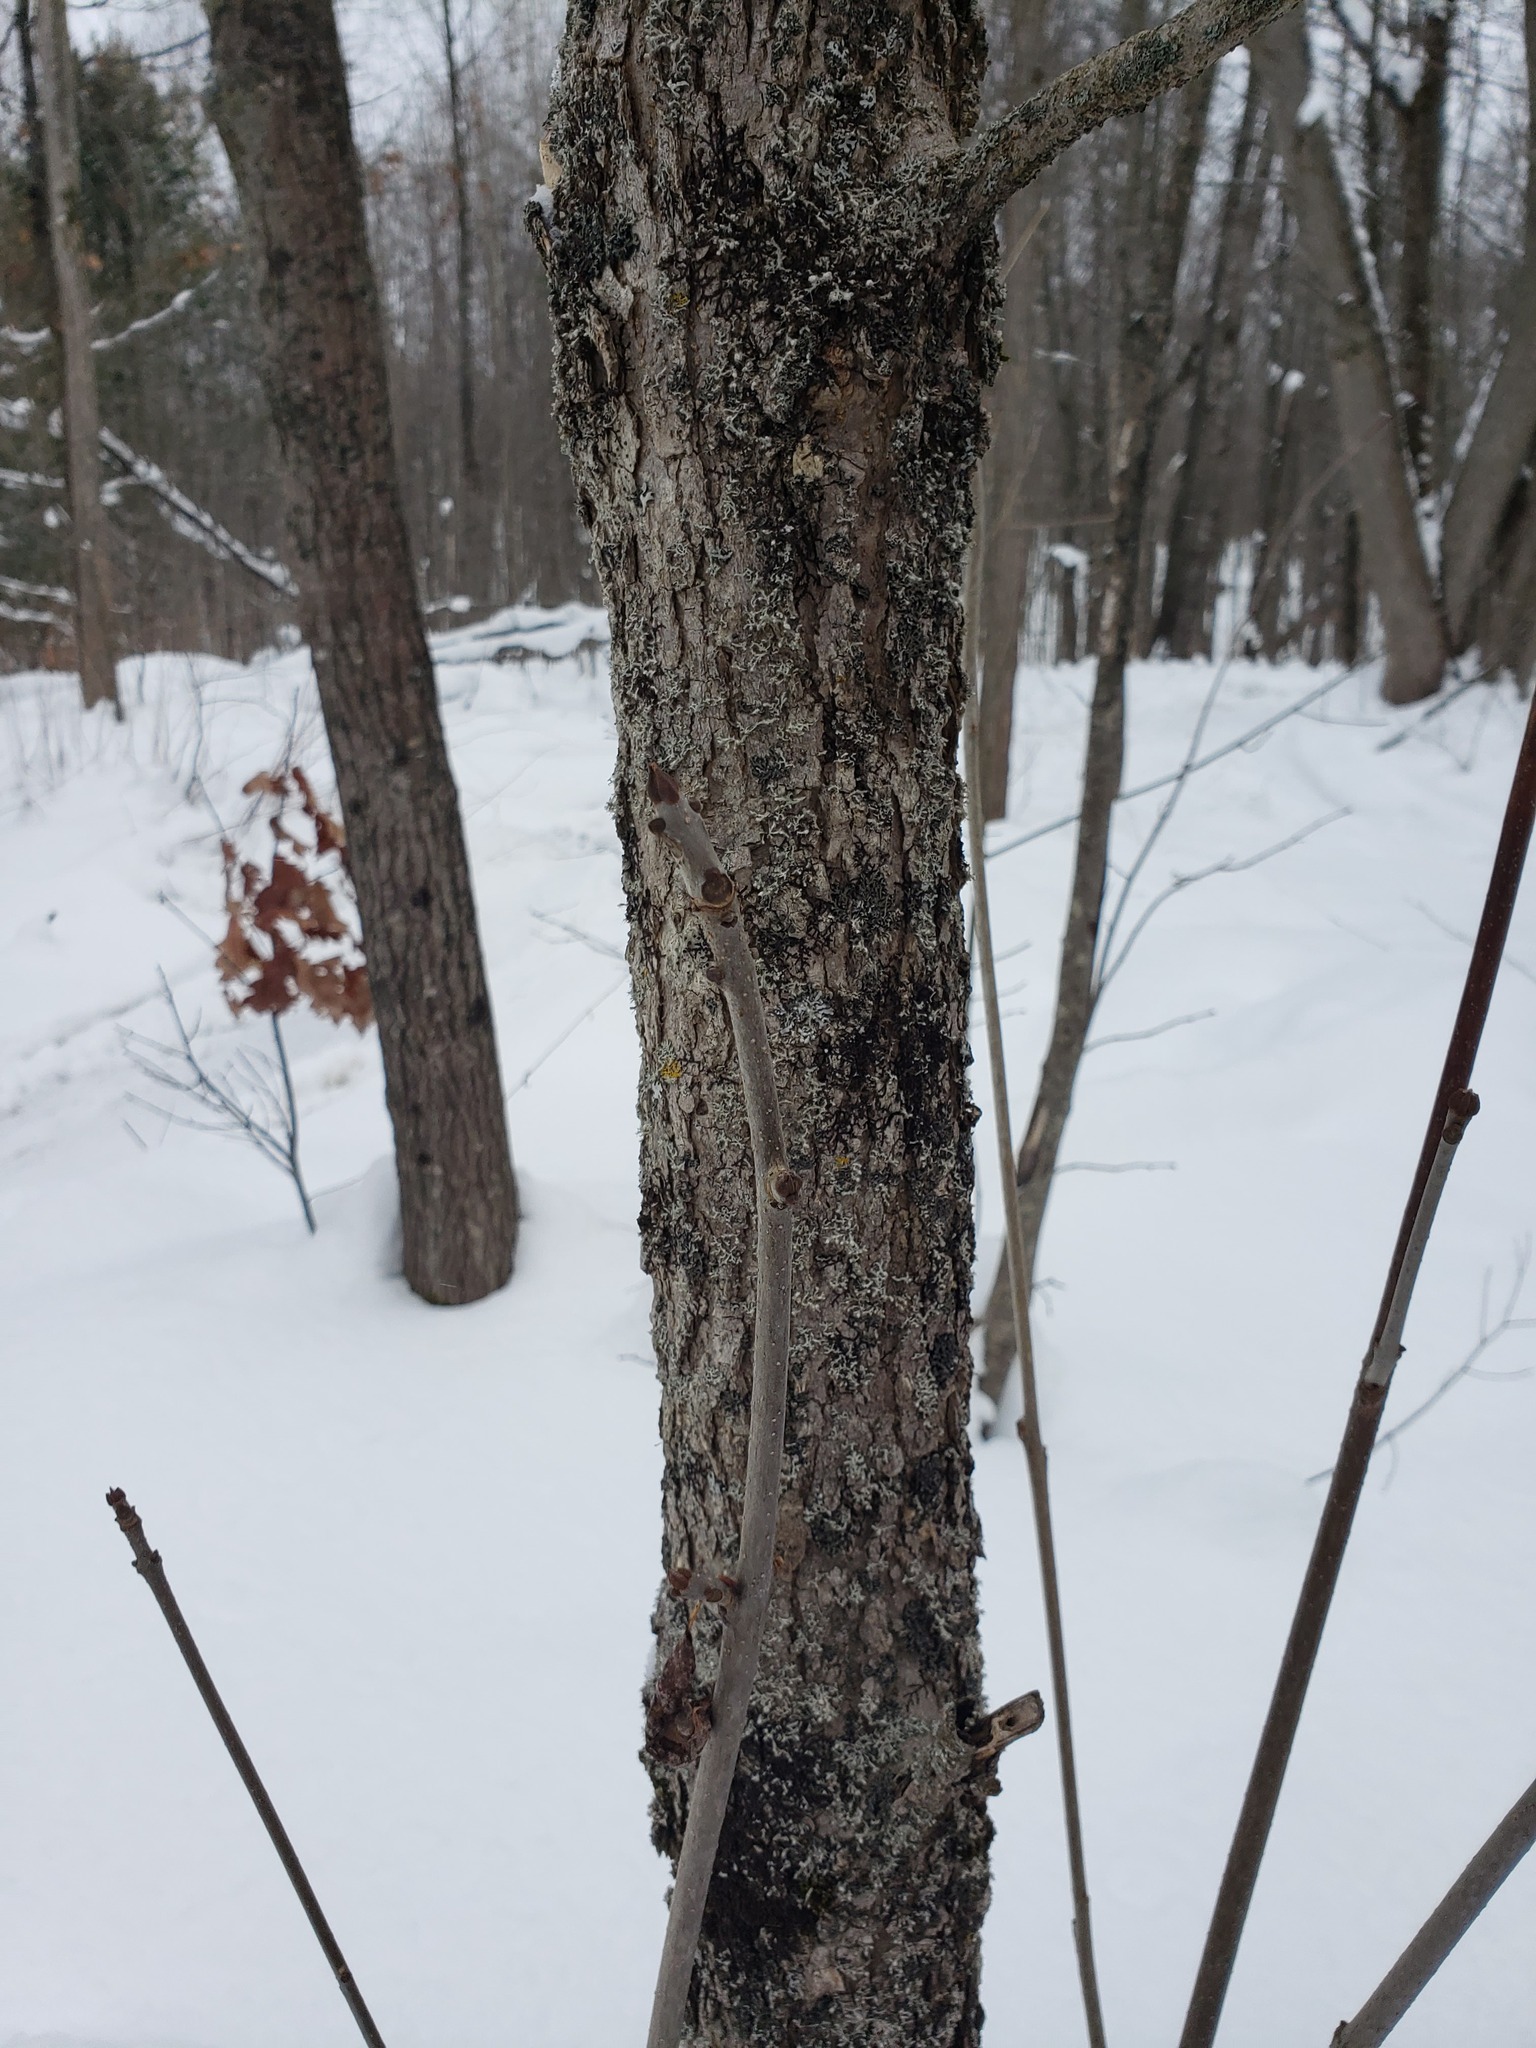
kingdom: Plantae
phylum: Tracheophyta
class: Magnoliopsida
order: Lamiales
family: Oleaceae
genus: Fraxinus
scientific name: Fraxinus nigra
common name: Black ash
